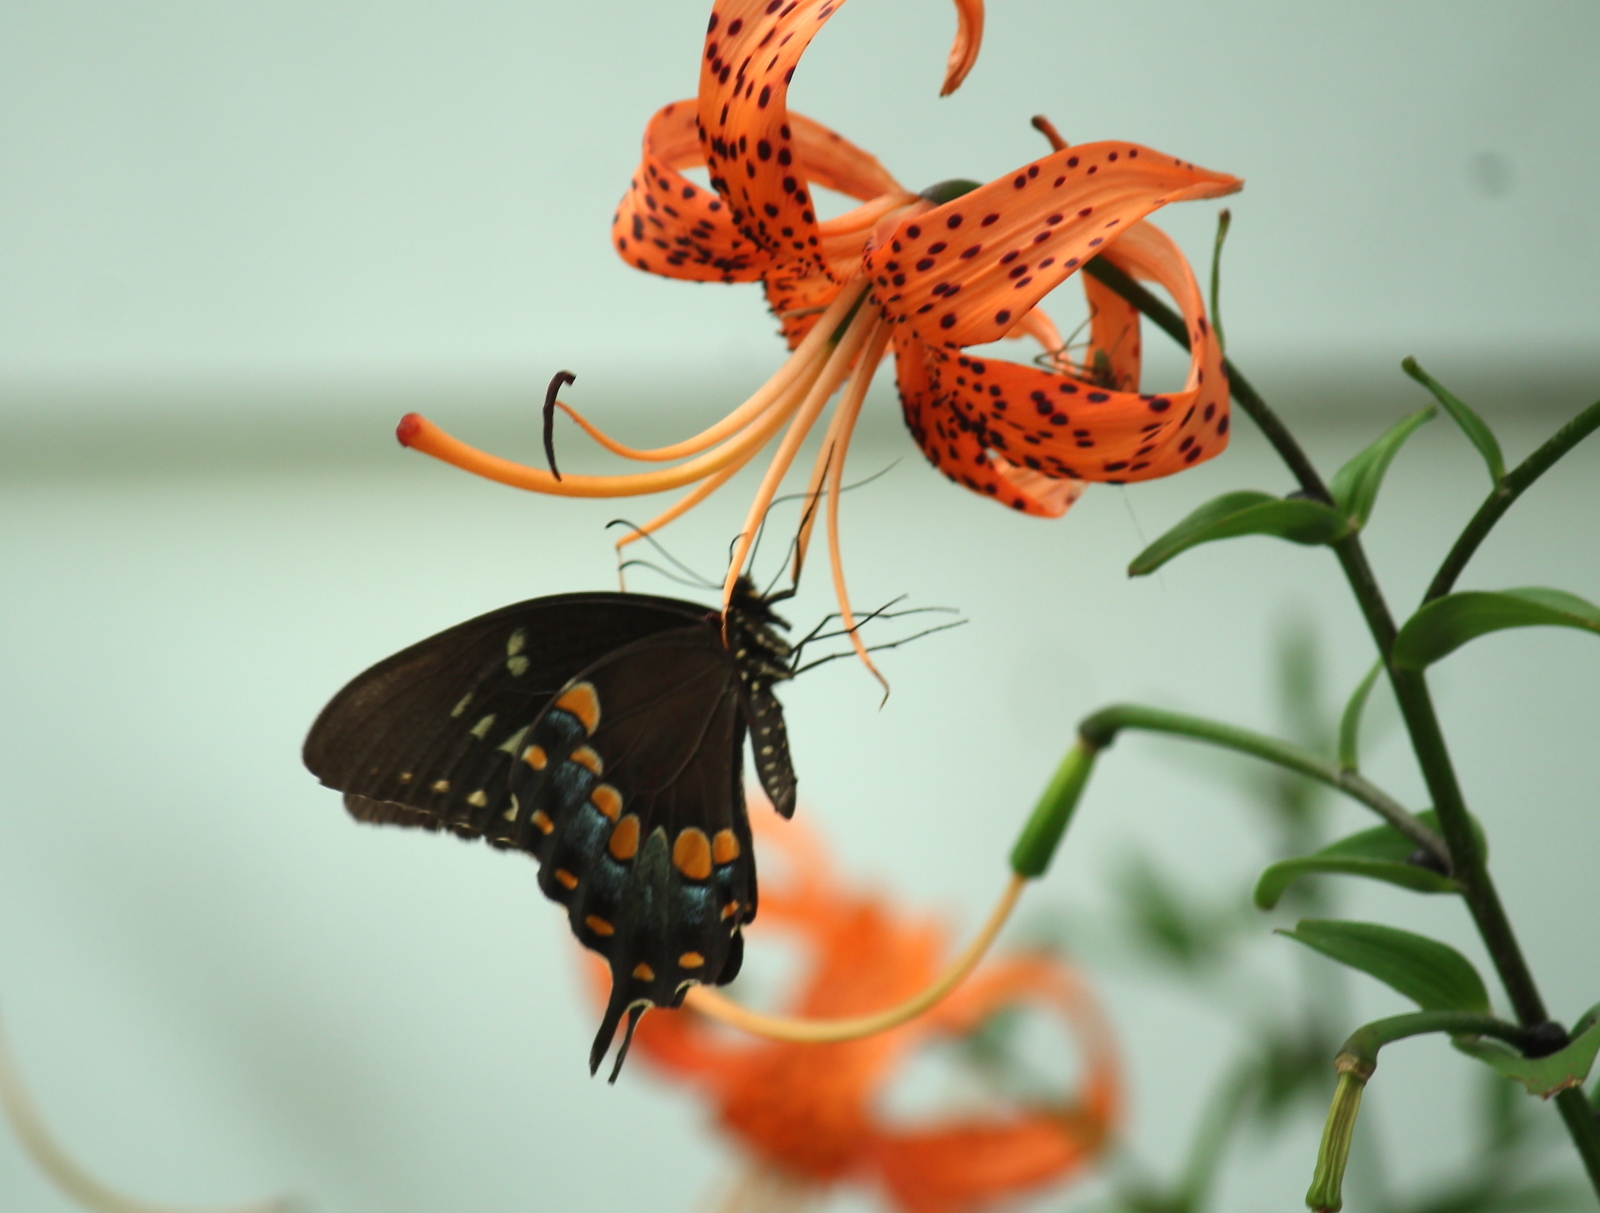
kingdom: Animalia
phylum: Arthropoda
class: Insecta
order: Lepidoptera
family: Papilionidae
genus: Papilio
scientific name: Papilio troilus
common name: Spicebush swallowtail
